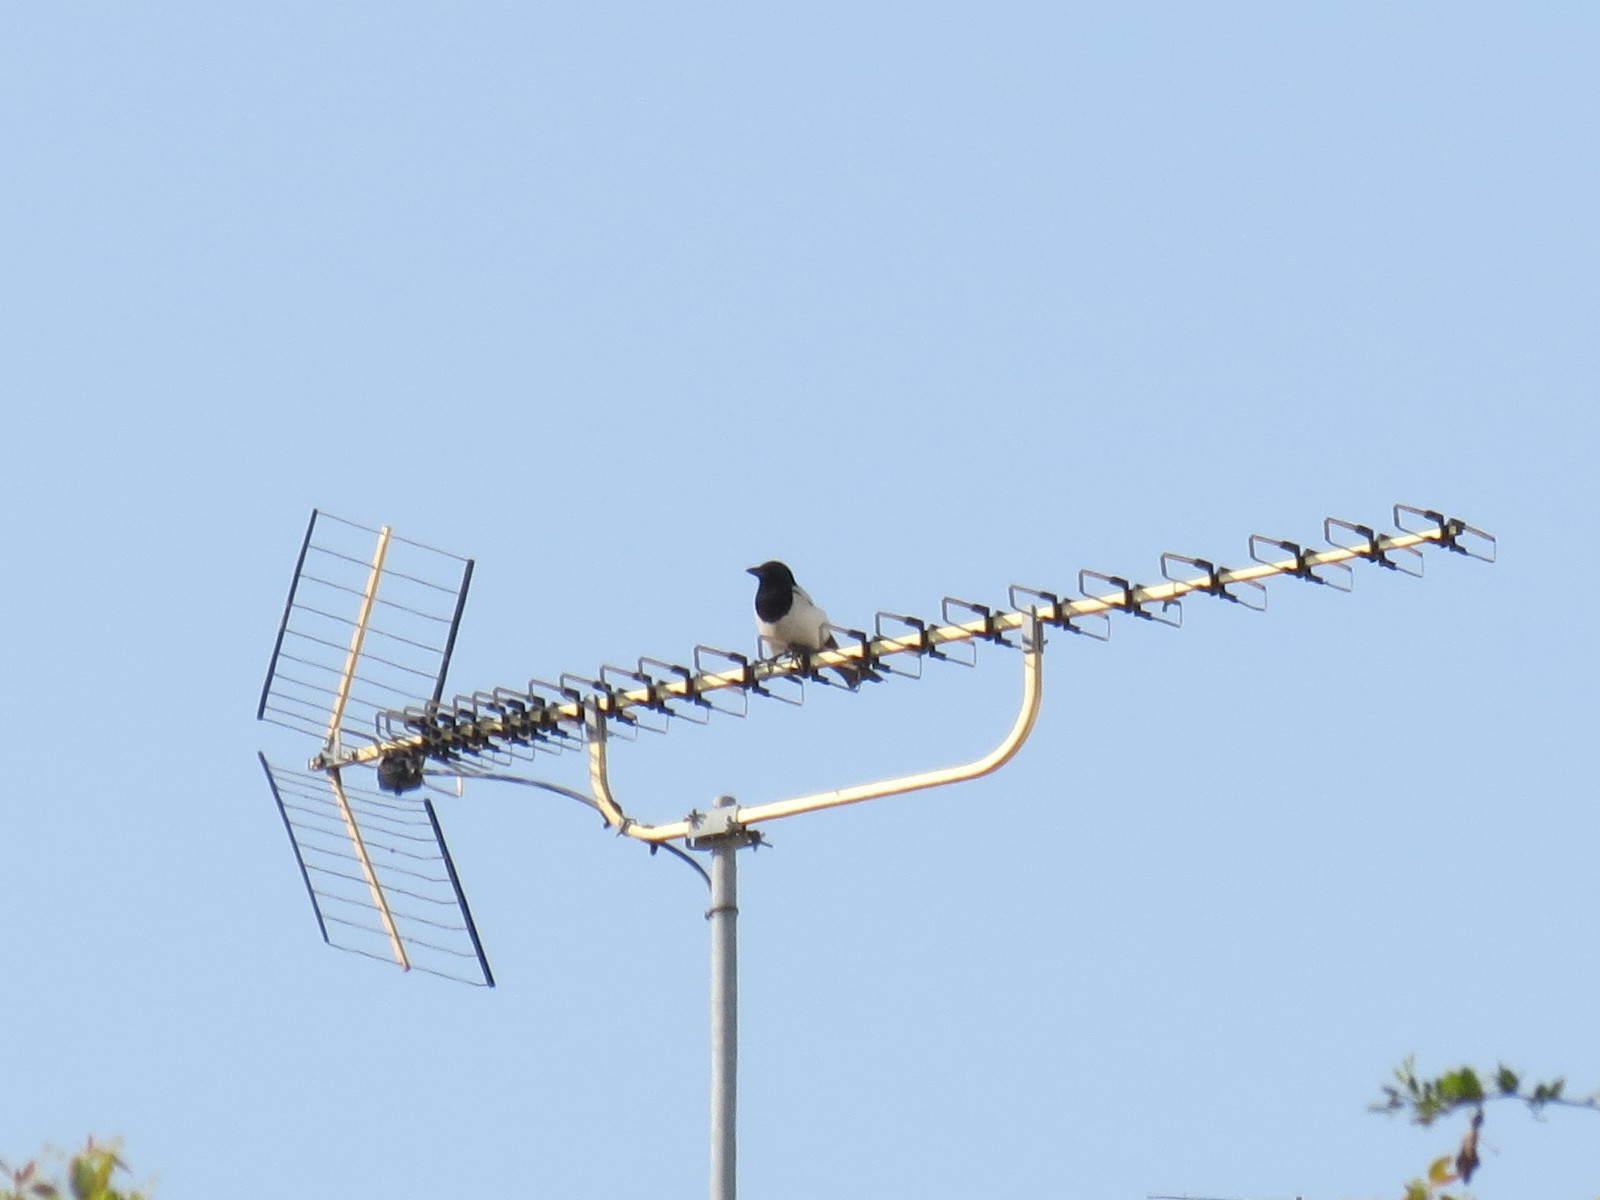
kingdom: Animalia
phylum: Chordata
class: Aves
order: Passeriformes
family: Corvidae
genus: Pica
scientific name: Pica pica
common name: Eurasian magpie
